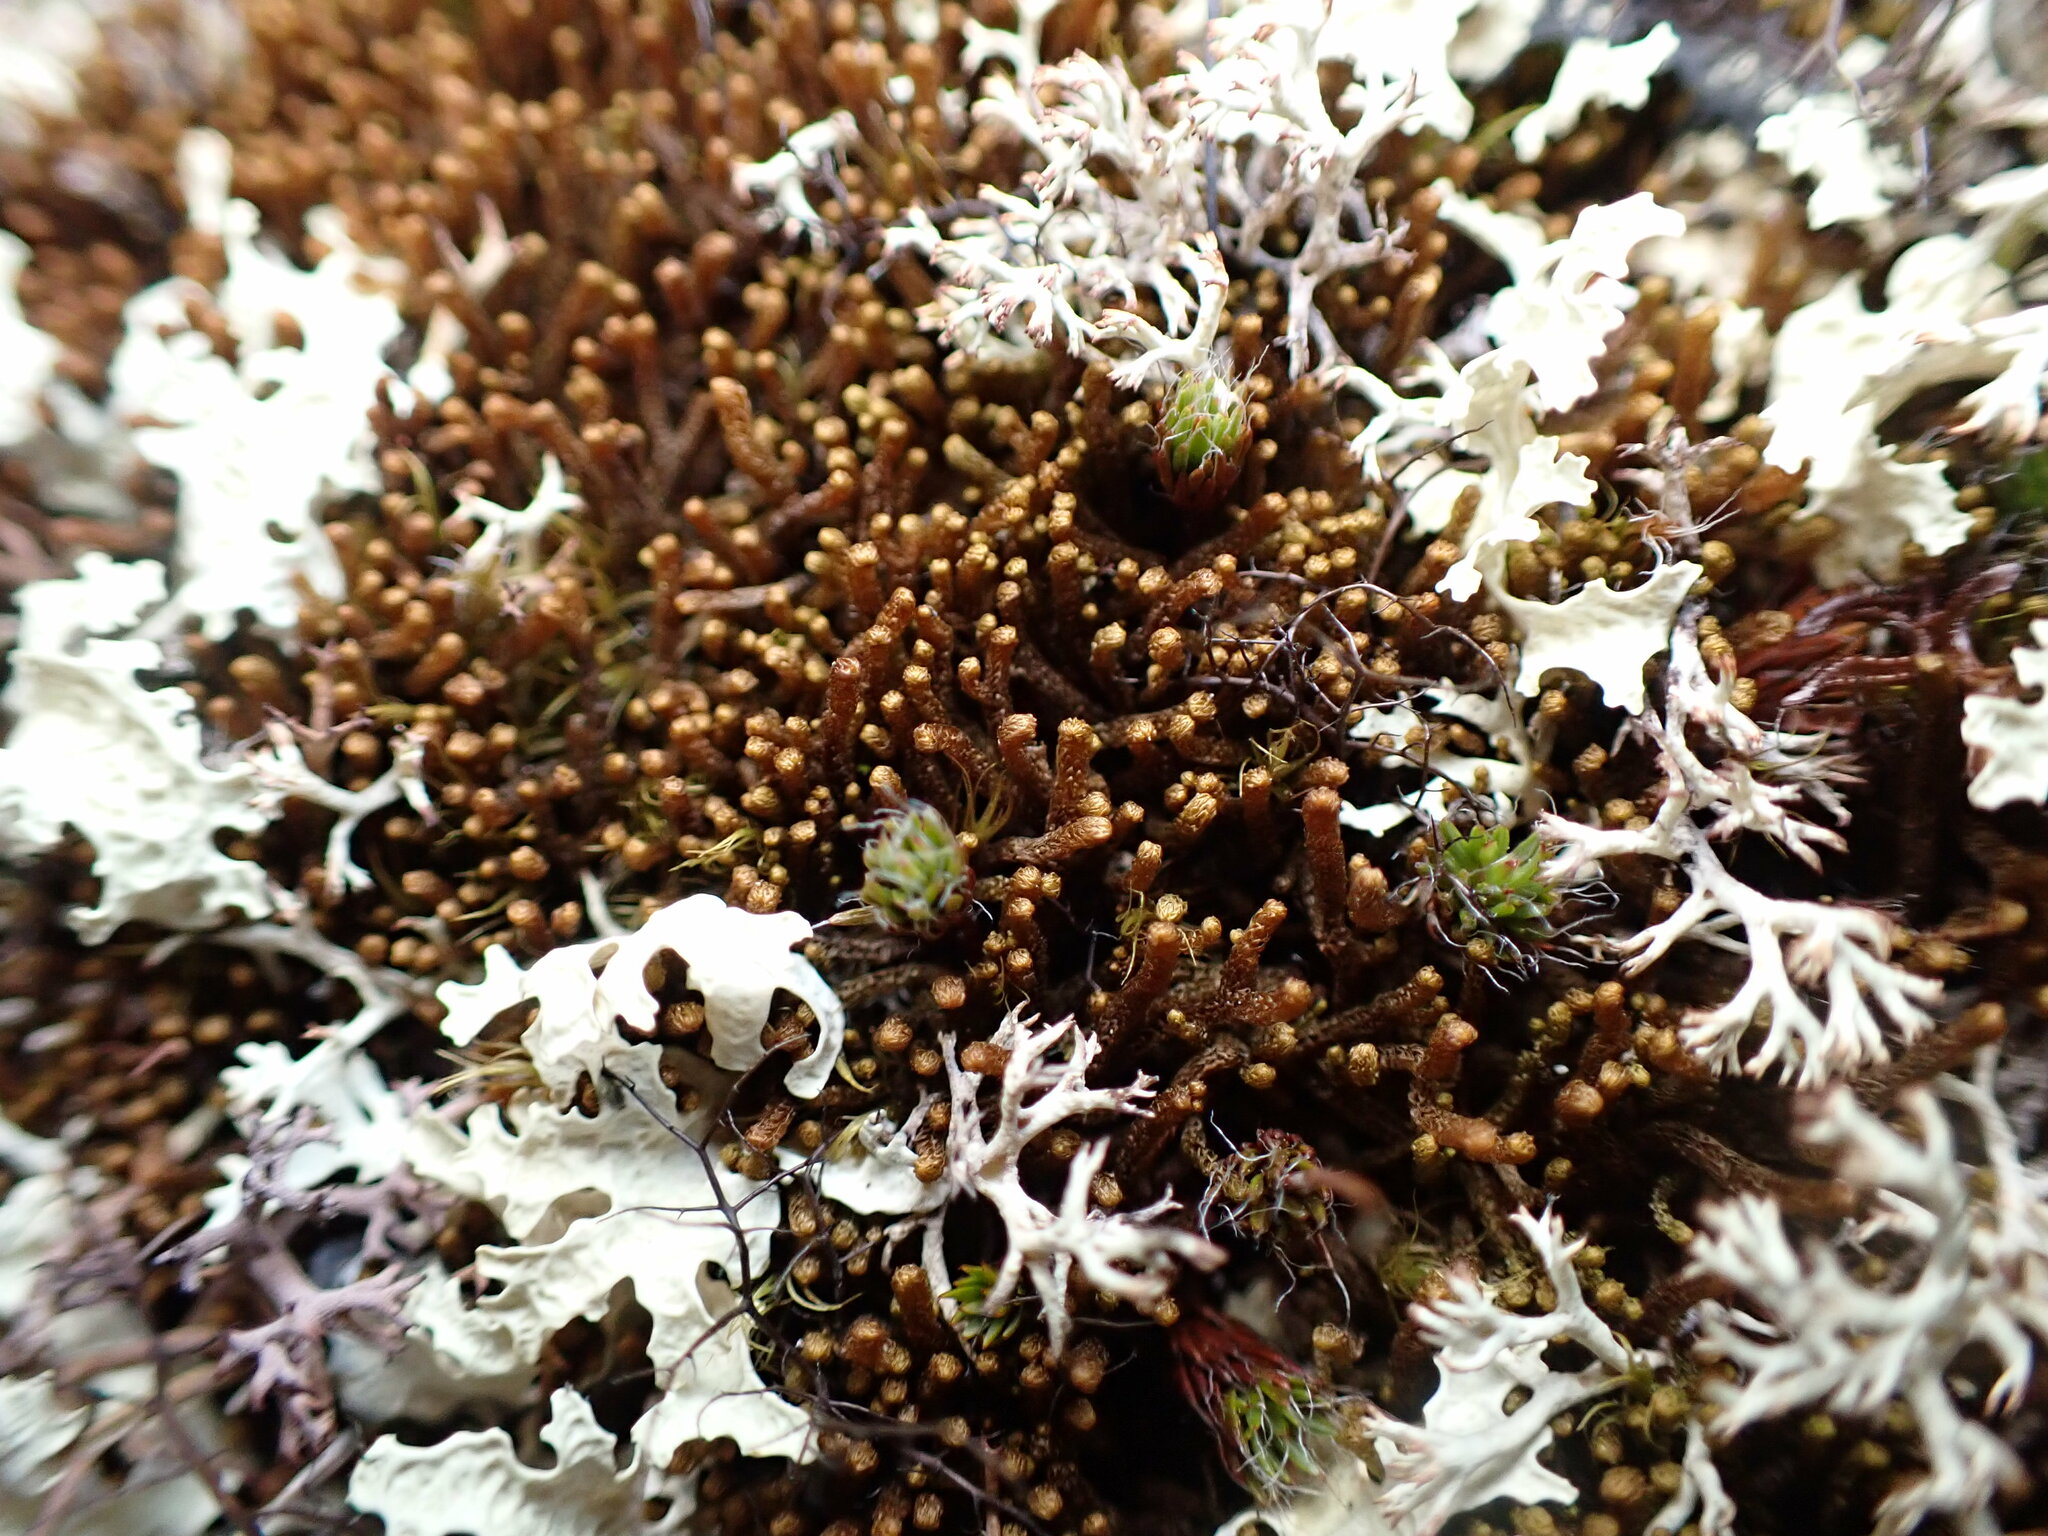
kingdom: Plantae
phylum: Marchantiophyta
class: Jungermanniopsida
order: Jungermanniales
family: Anastrophyllaceae
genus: Tetralophozia
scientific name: Tetralophozia setiformis
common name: Monster pawwort
